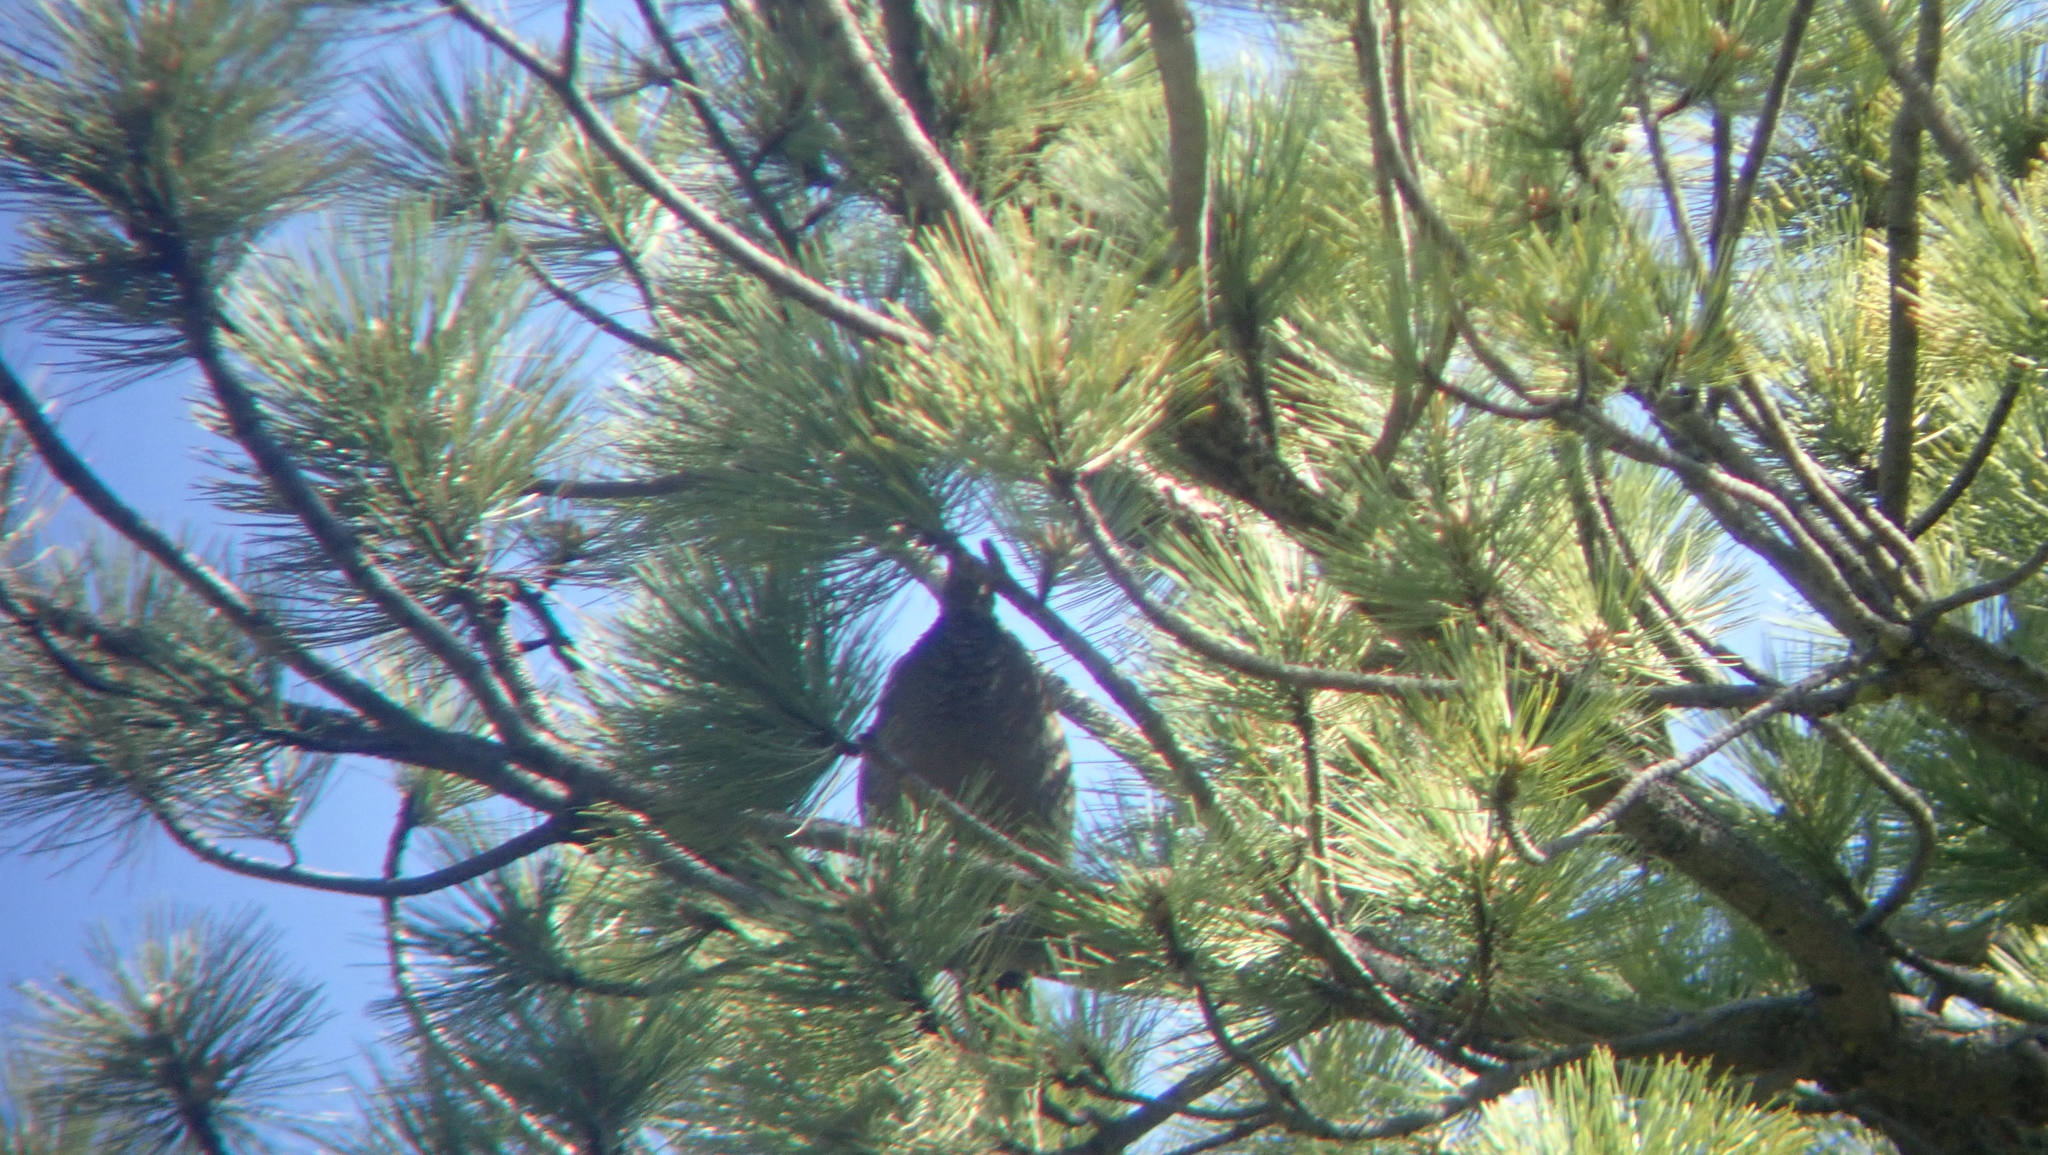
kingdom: Animalia
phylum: Chordata
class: Aves
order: Galliformes
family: Phasianidae
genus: Dendragapus
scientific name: Dendragapus fuliginosus
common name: Sooty grouse
